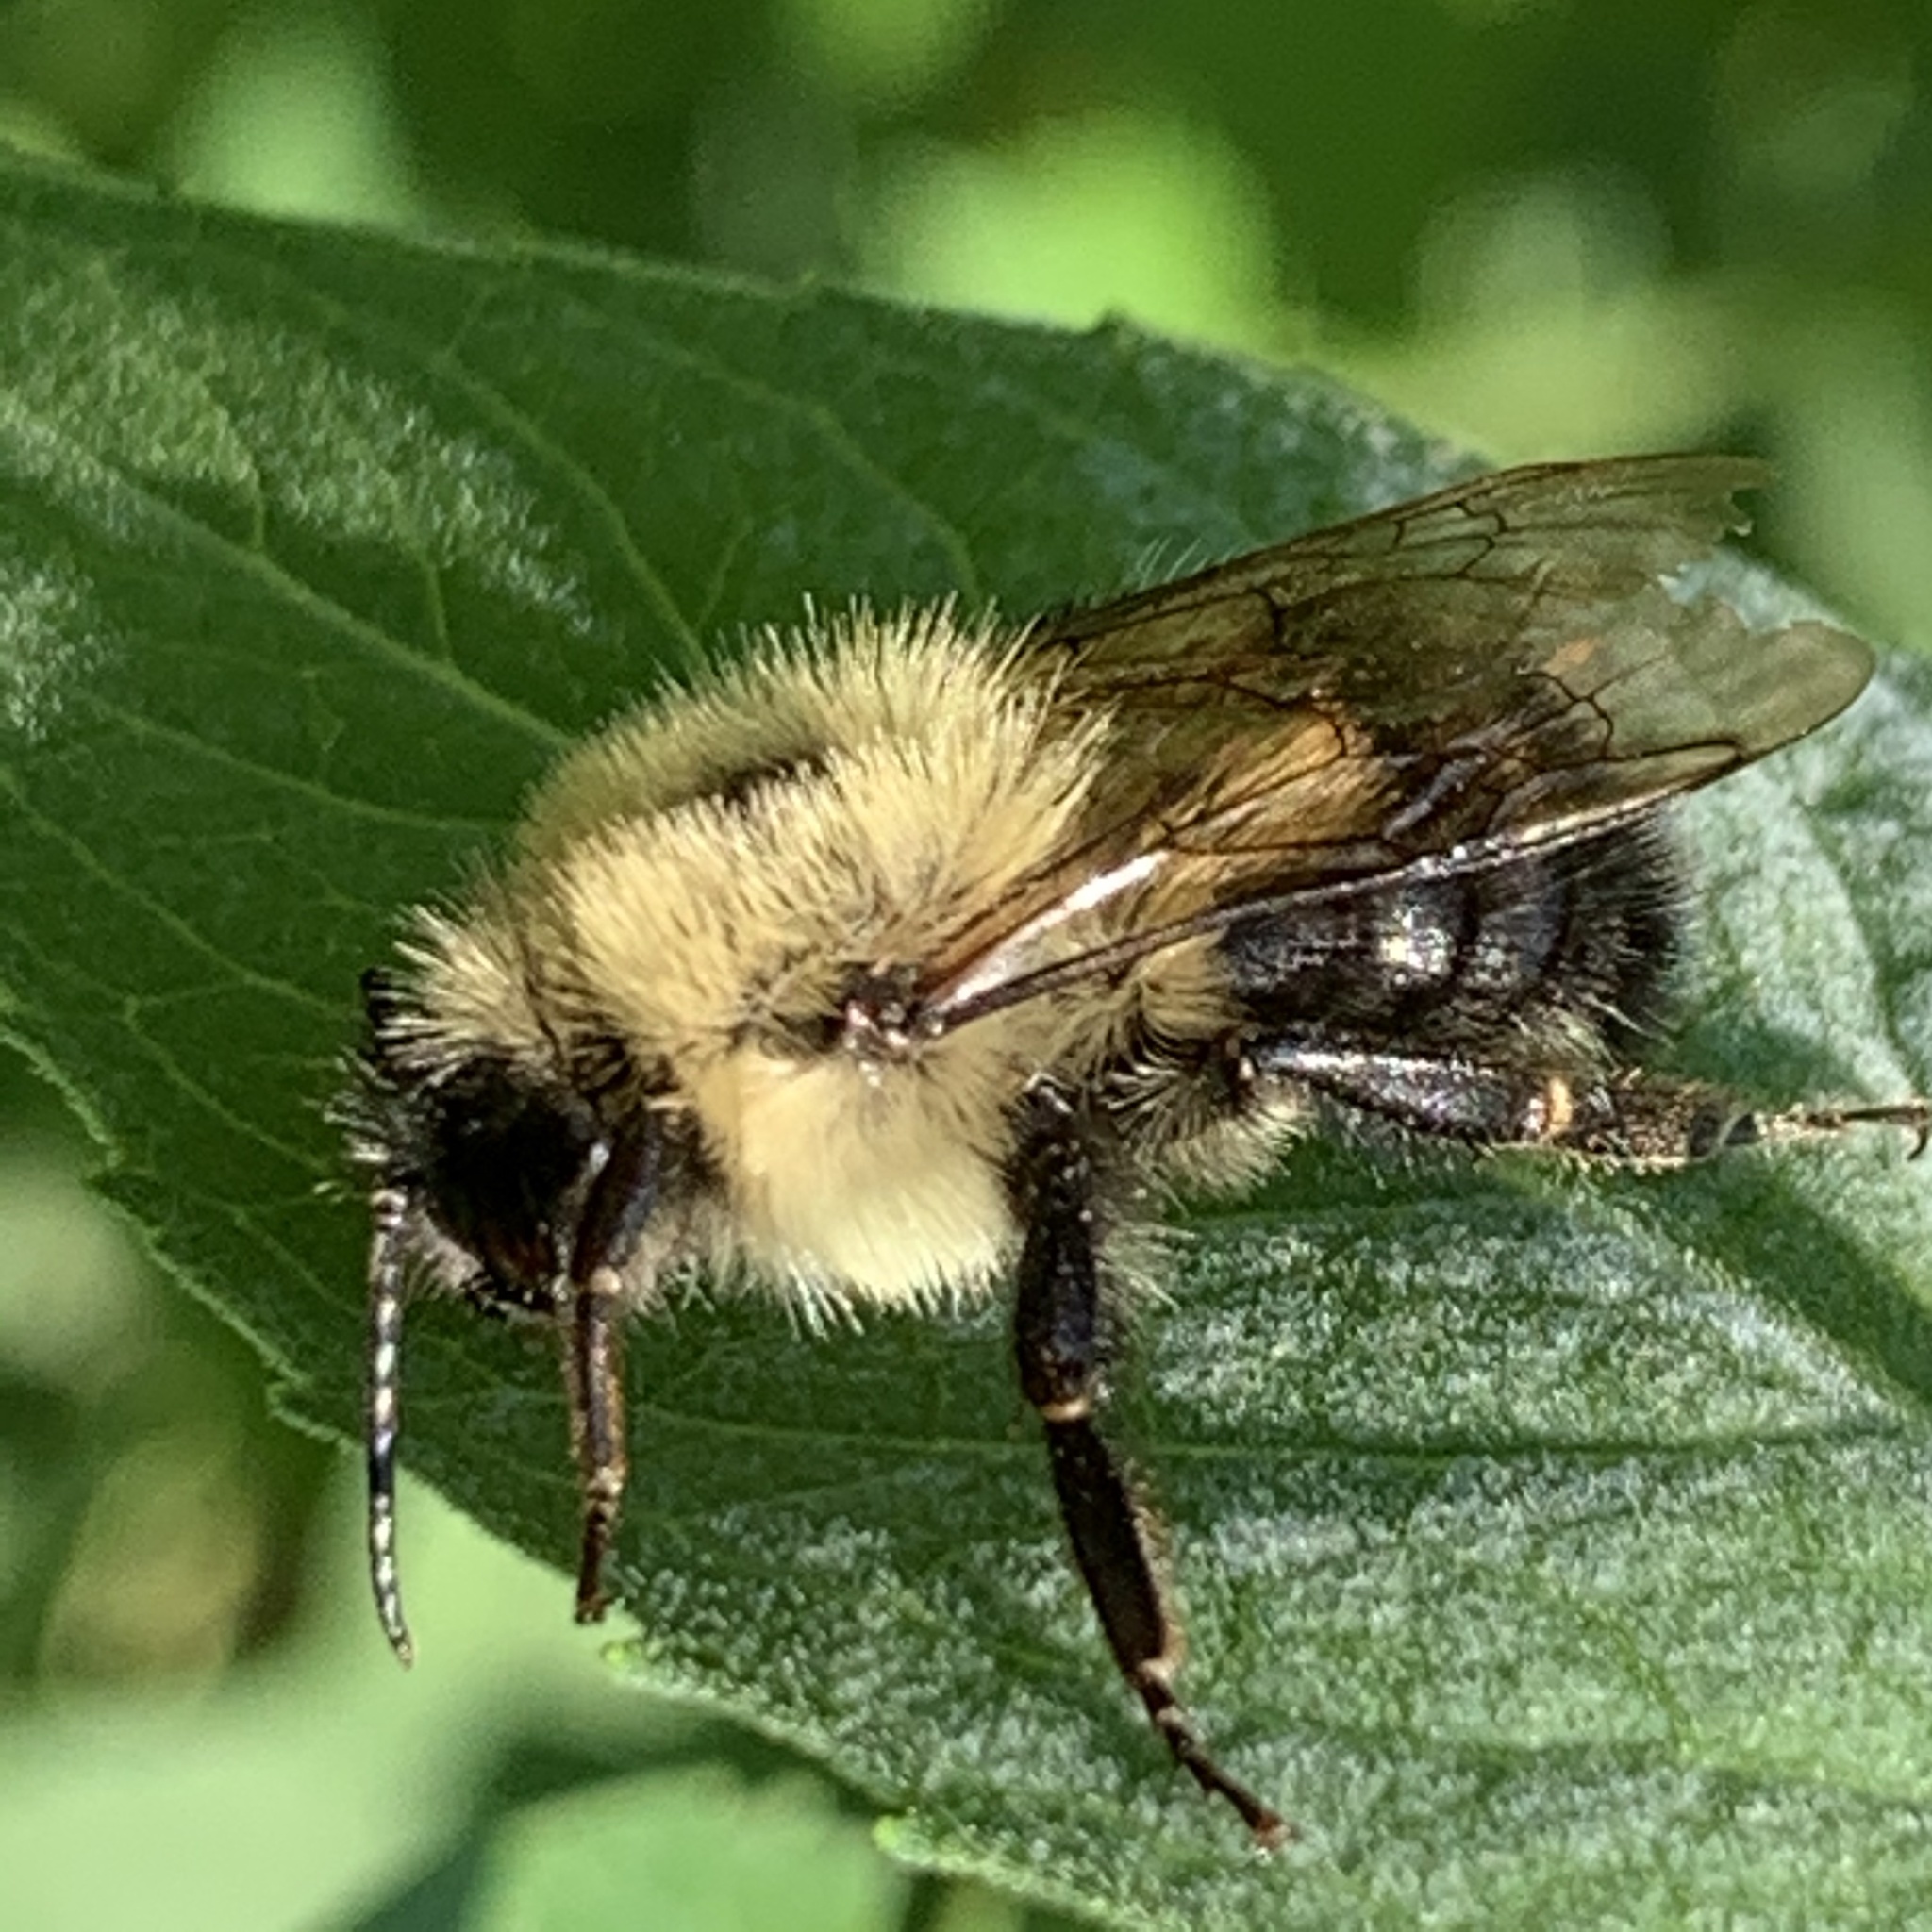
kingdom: Animalia
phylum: Arthropoda
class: Insecta
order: Hymenoptera
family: Apidae
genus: Bombus
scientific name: Bombus bimaculatus
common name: Two-spotted bumble bee
